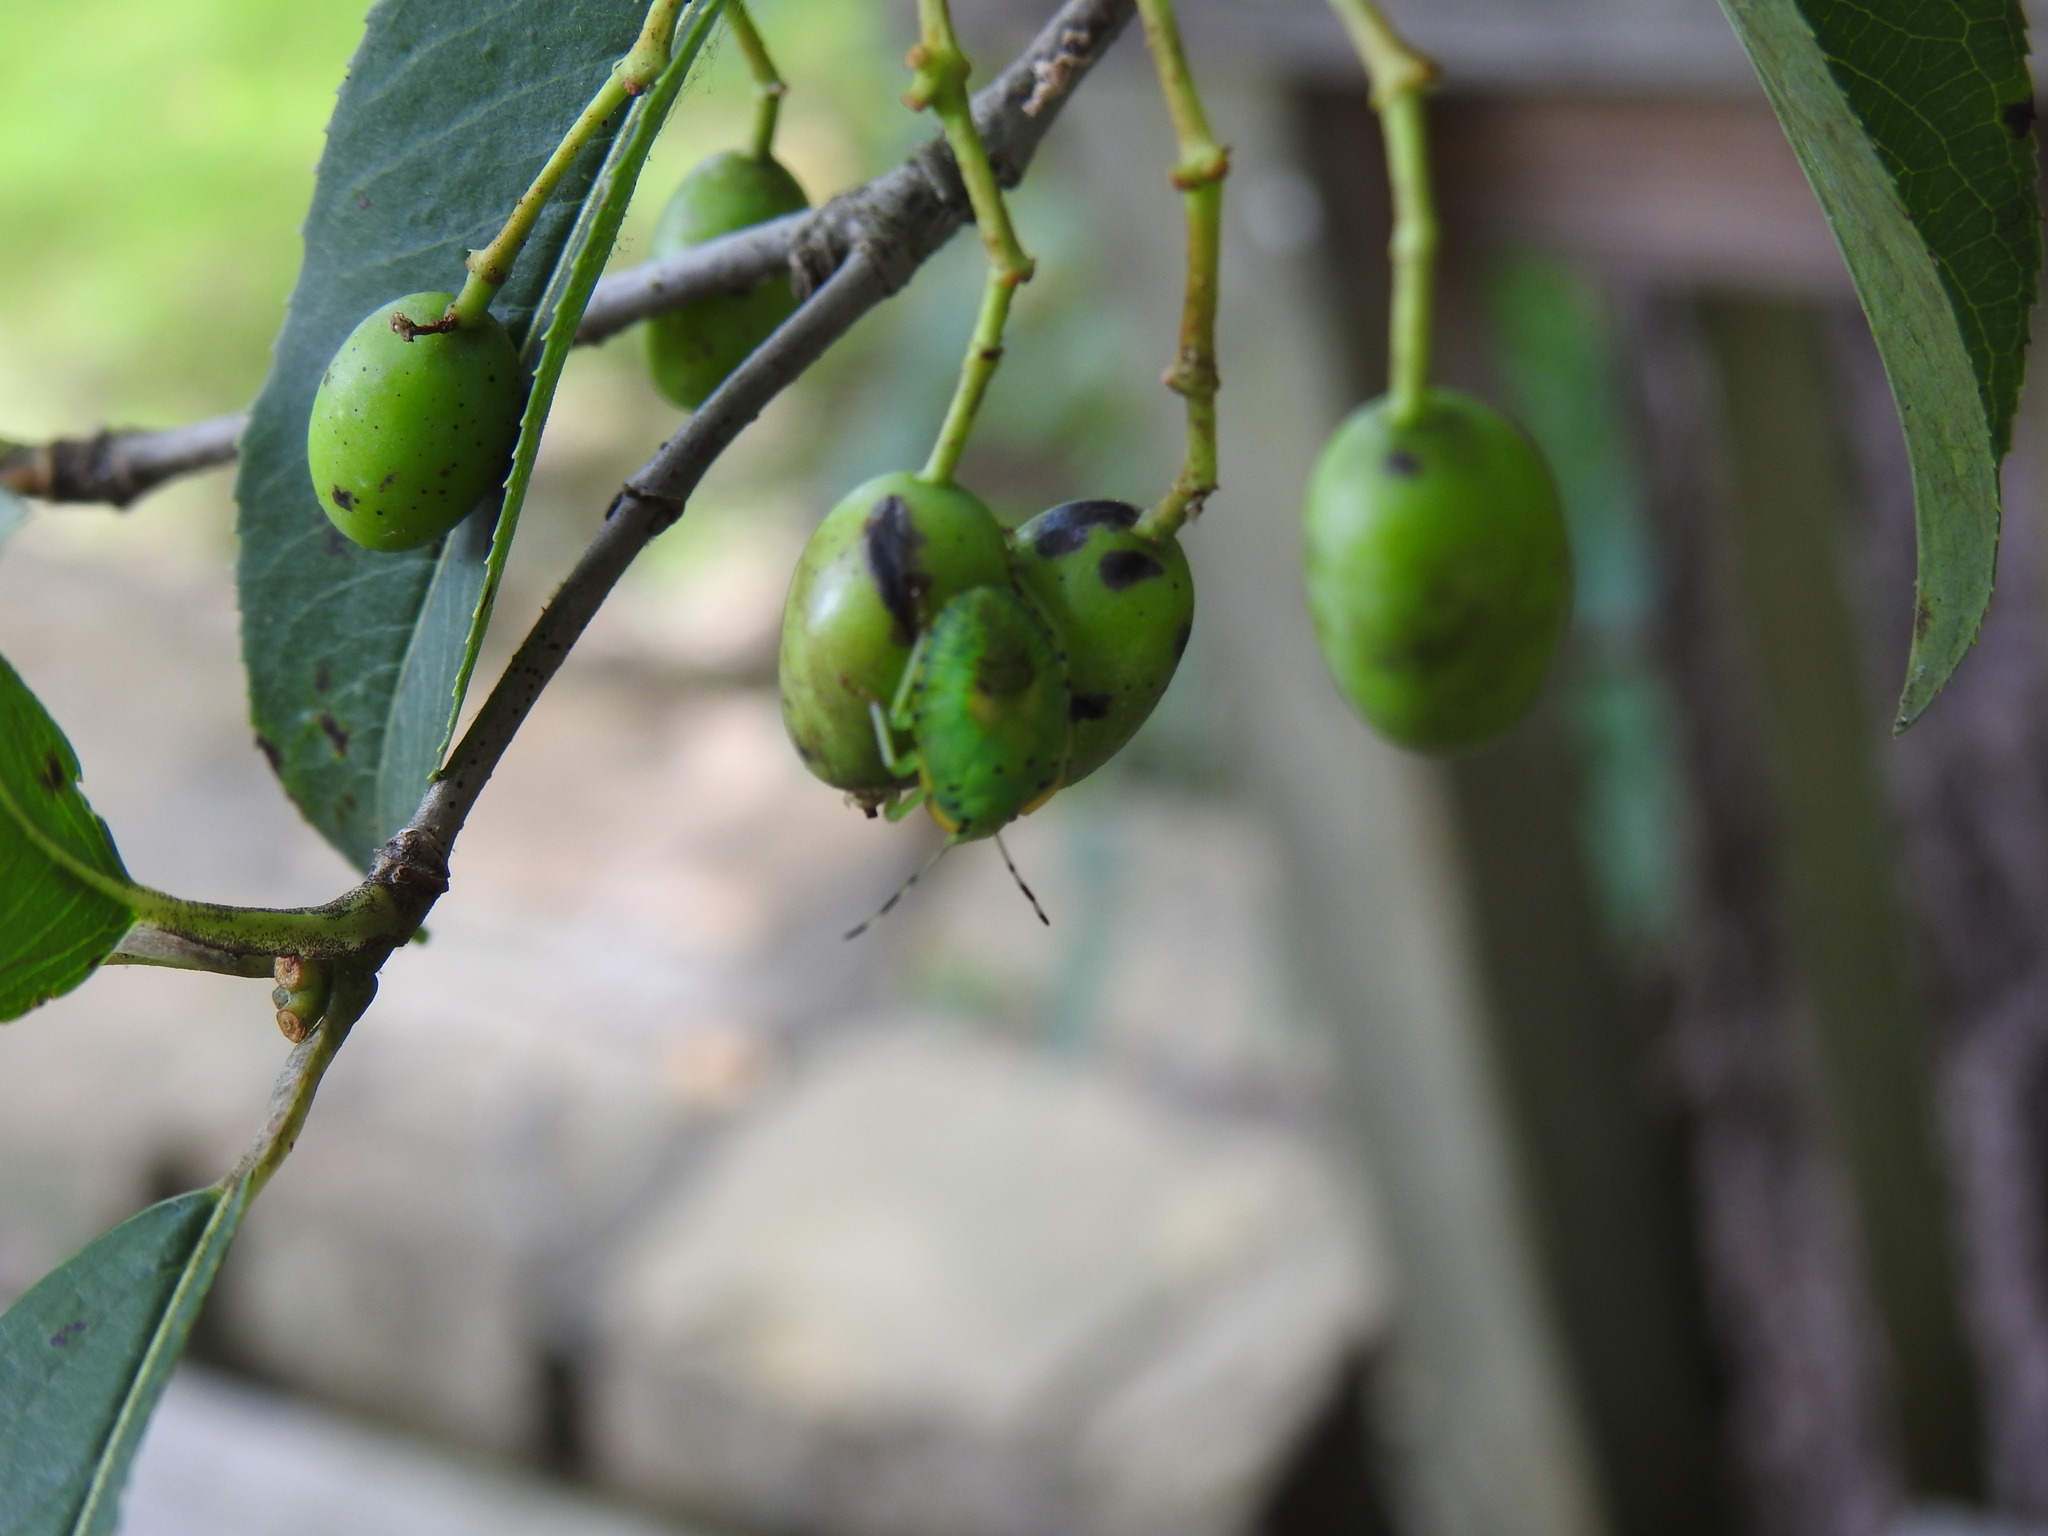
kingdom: Animalia
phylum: Arthropoda
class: Insecta
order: Hemiptera
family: Pentatomidae
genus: Chinavia
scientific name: Chinavia hilaris
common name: Green stink bug
